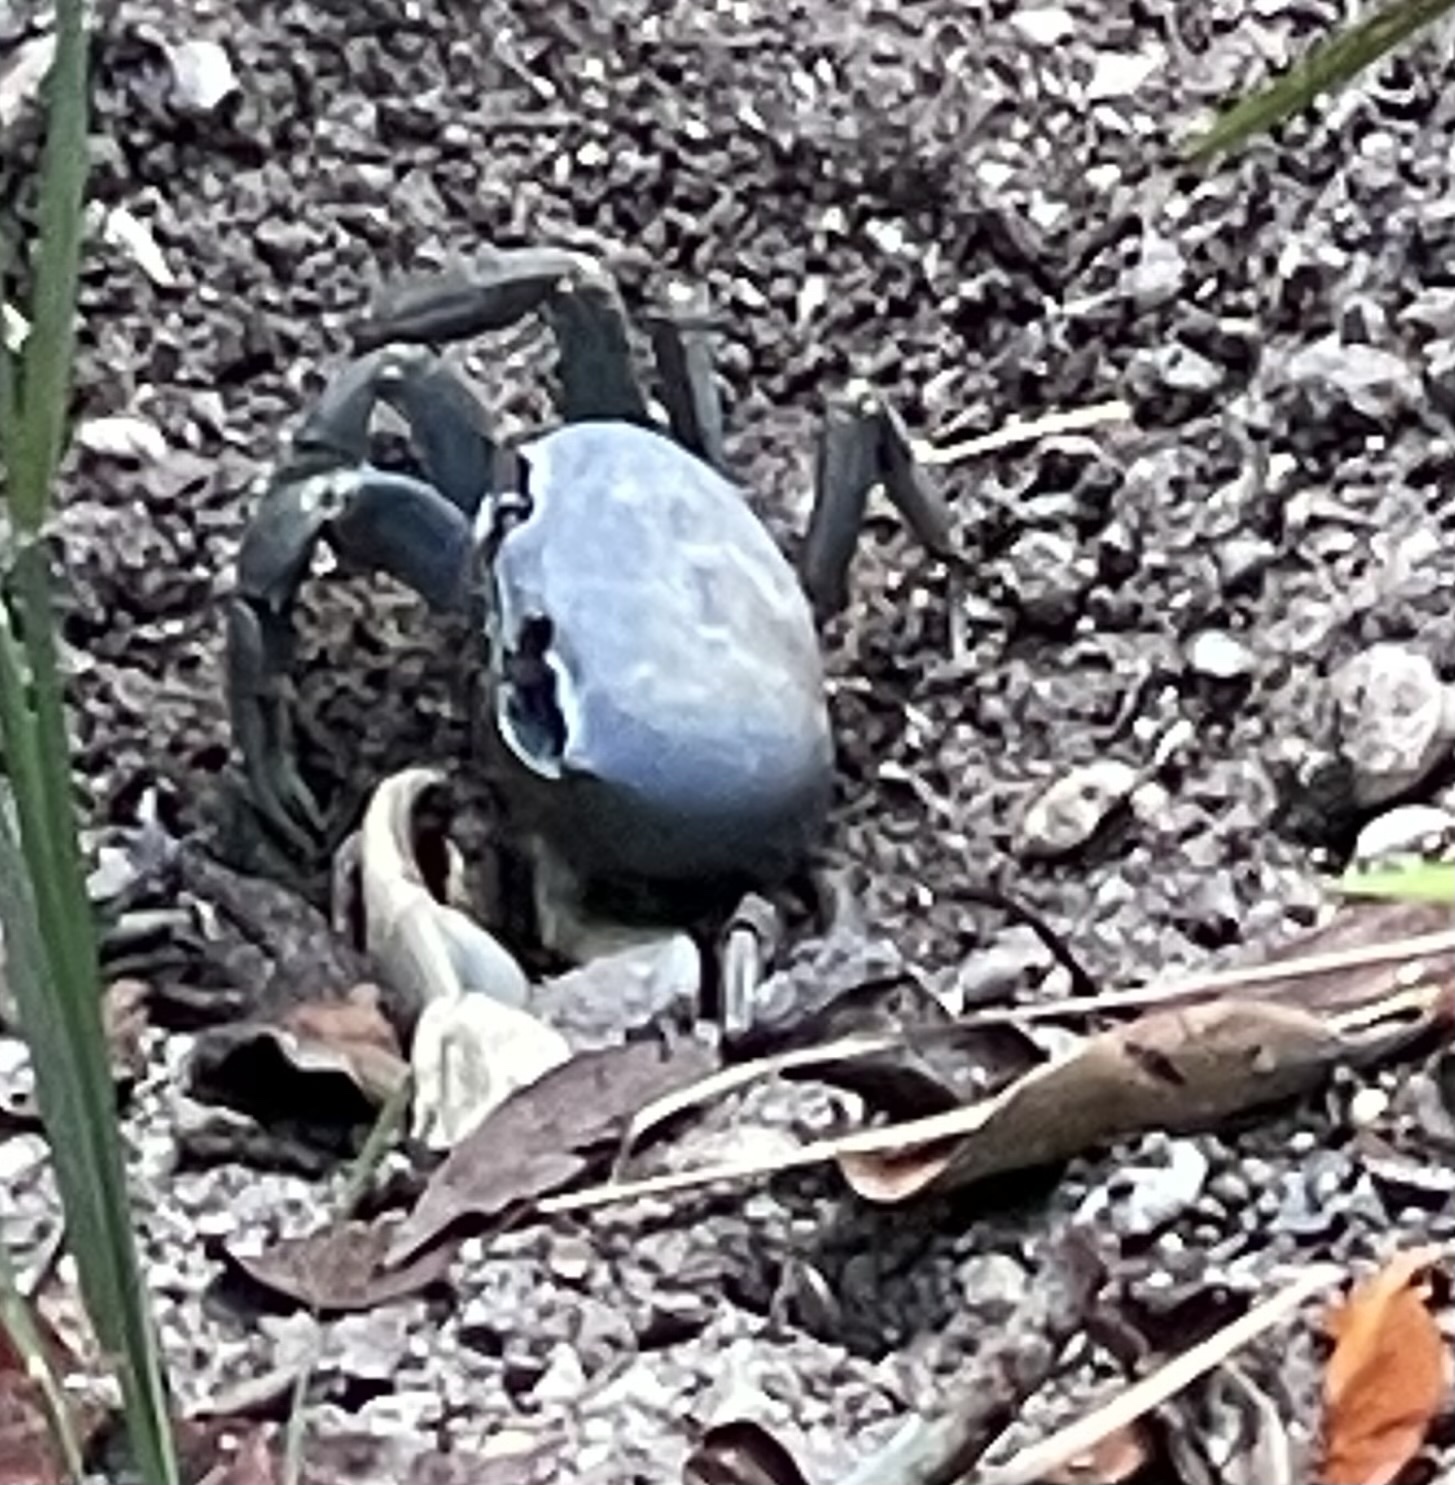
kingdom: Animalia
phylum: Arthropoda
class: Malacostraca
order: Decapoda
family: Gecarcinidae
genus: Cardisoma
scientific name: Cardisoma guanhumi
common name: Great land crab
